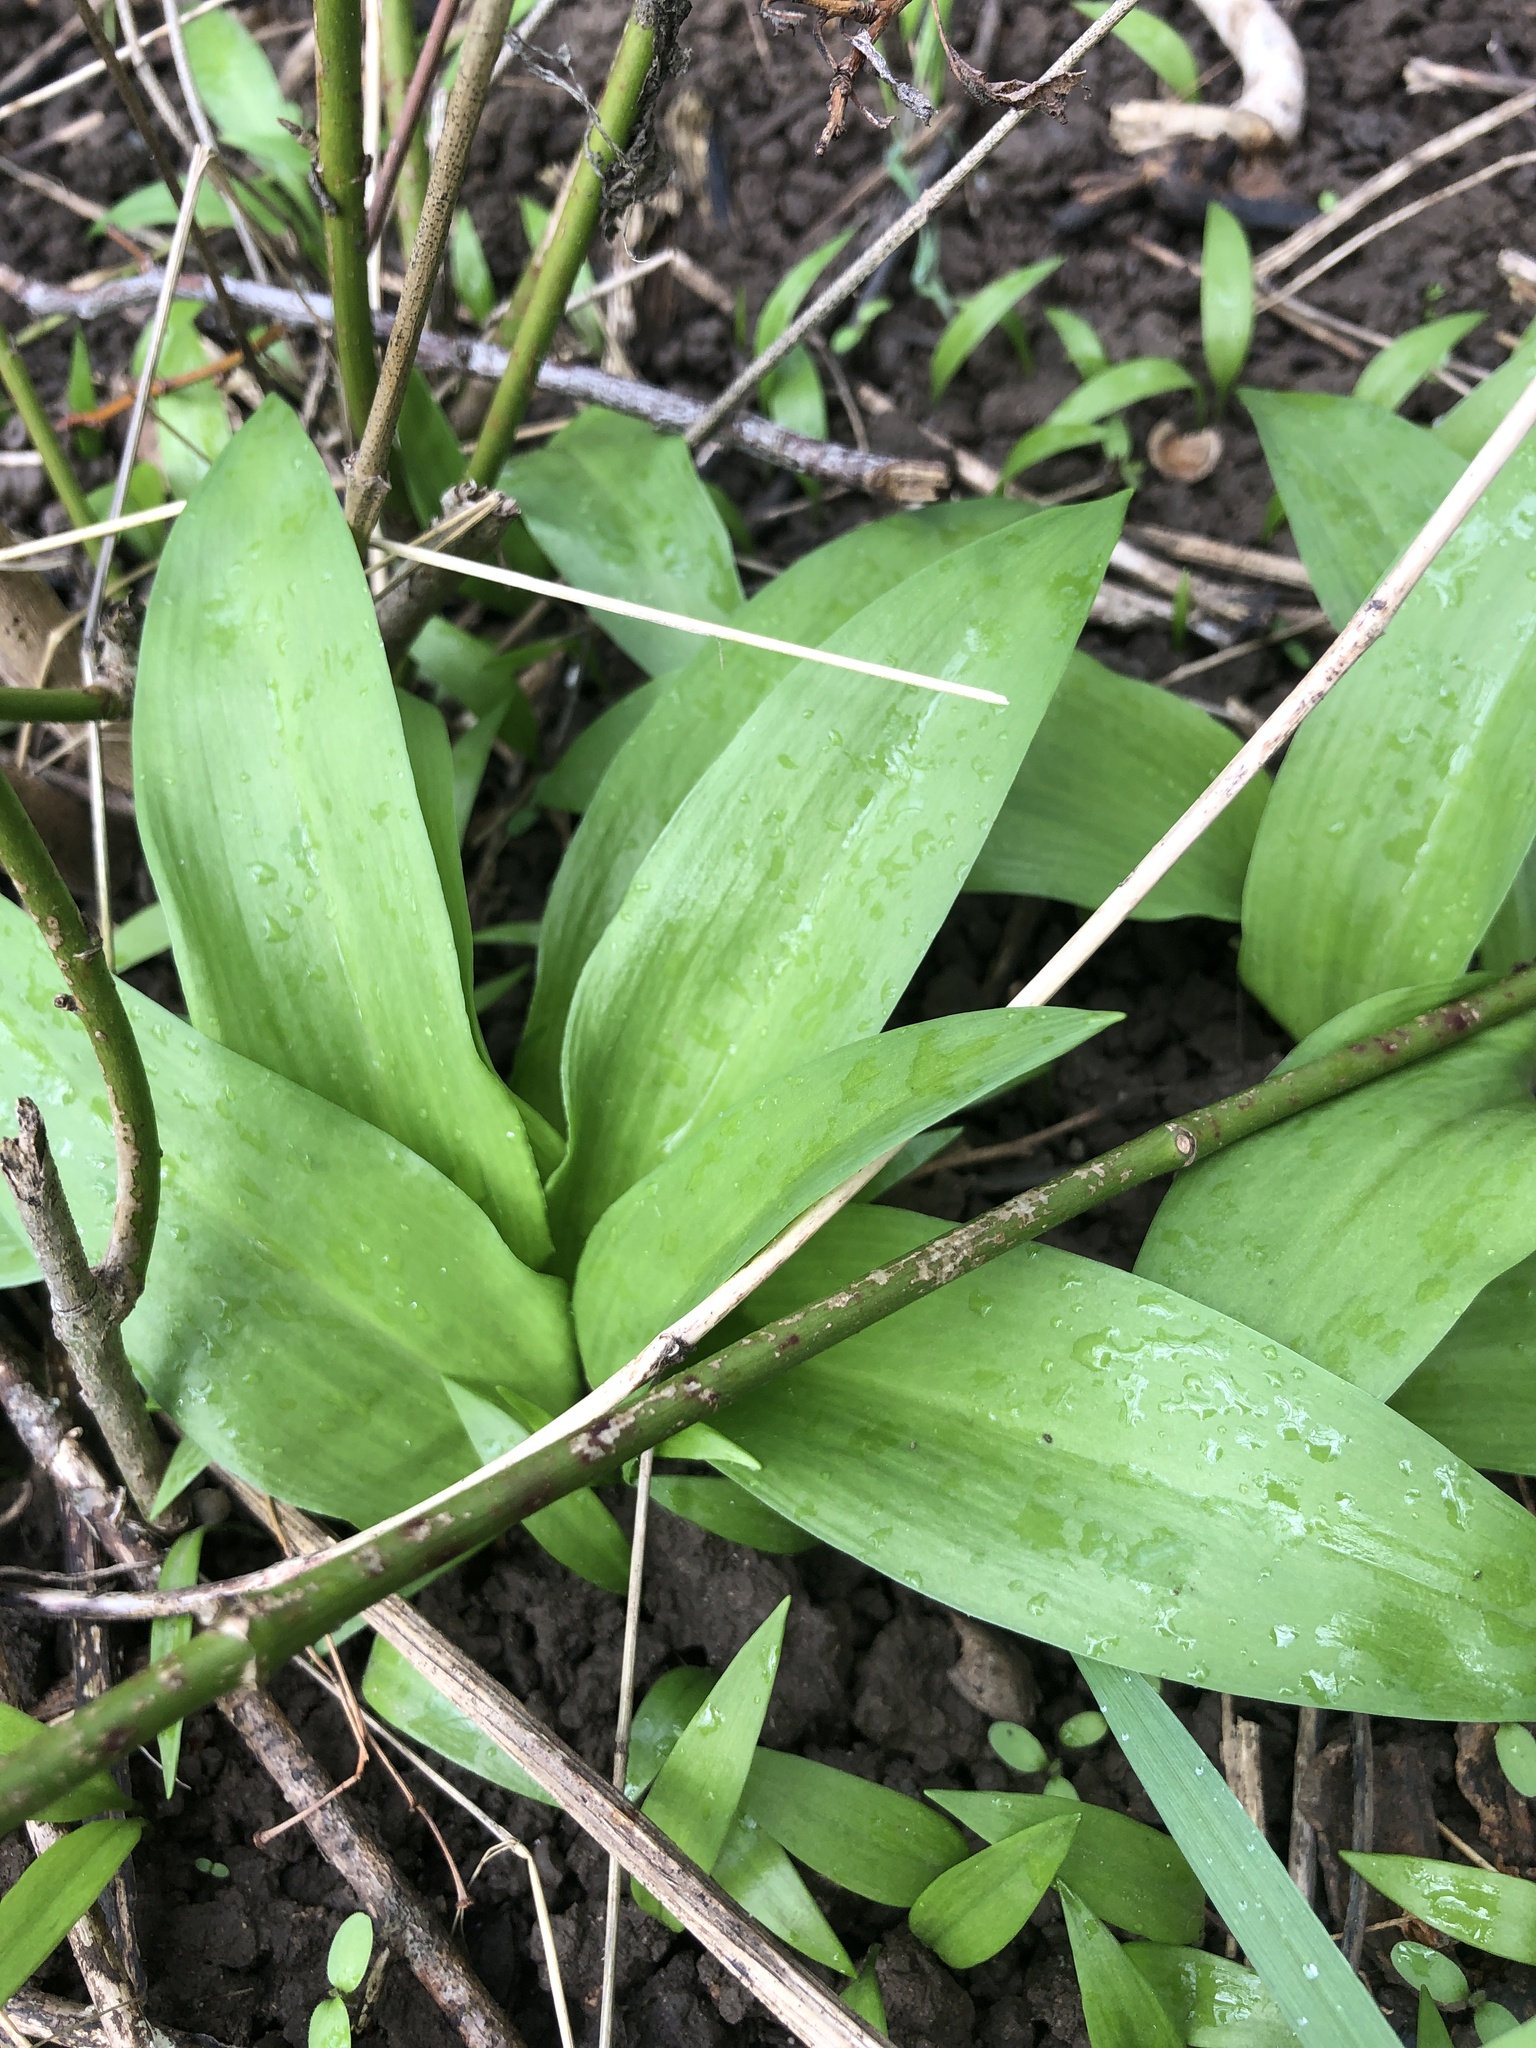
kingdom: Plantae
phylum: Tracheophyta
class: Liliopsida
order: Asparagales
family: Amaryllidaceae
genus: Allium
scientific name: Allium ursinum
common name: Ramsons
